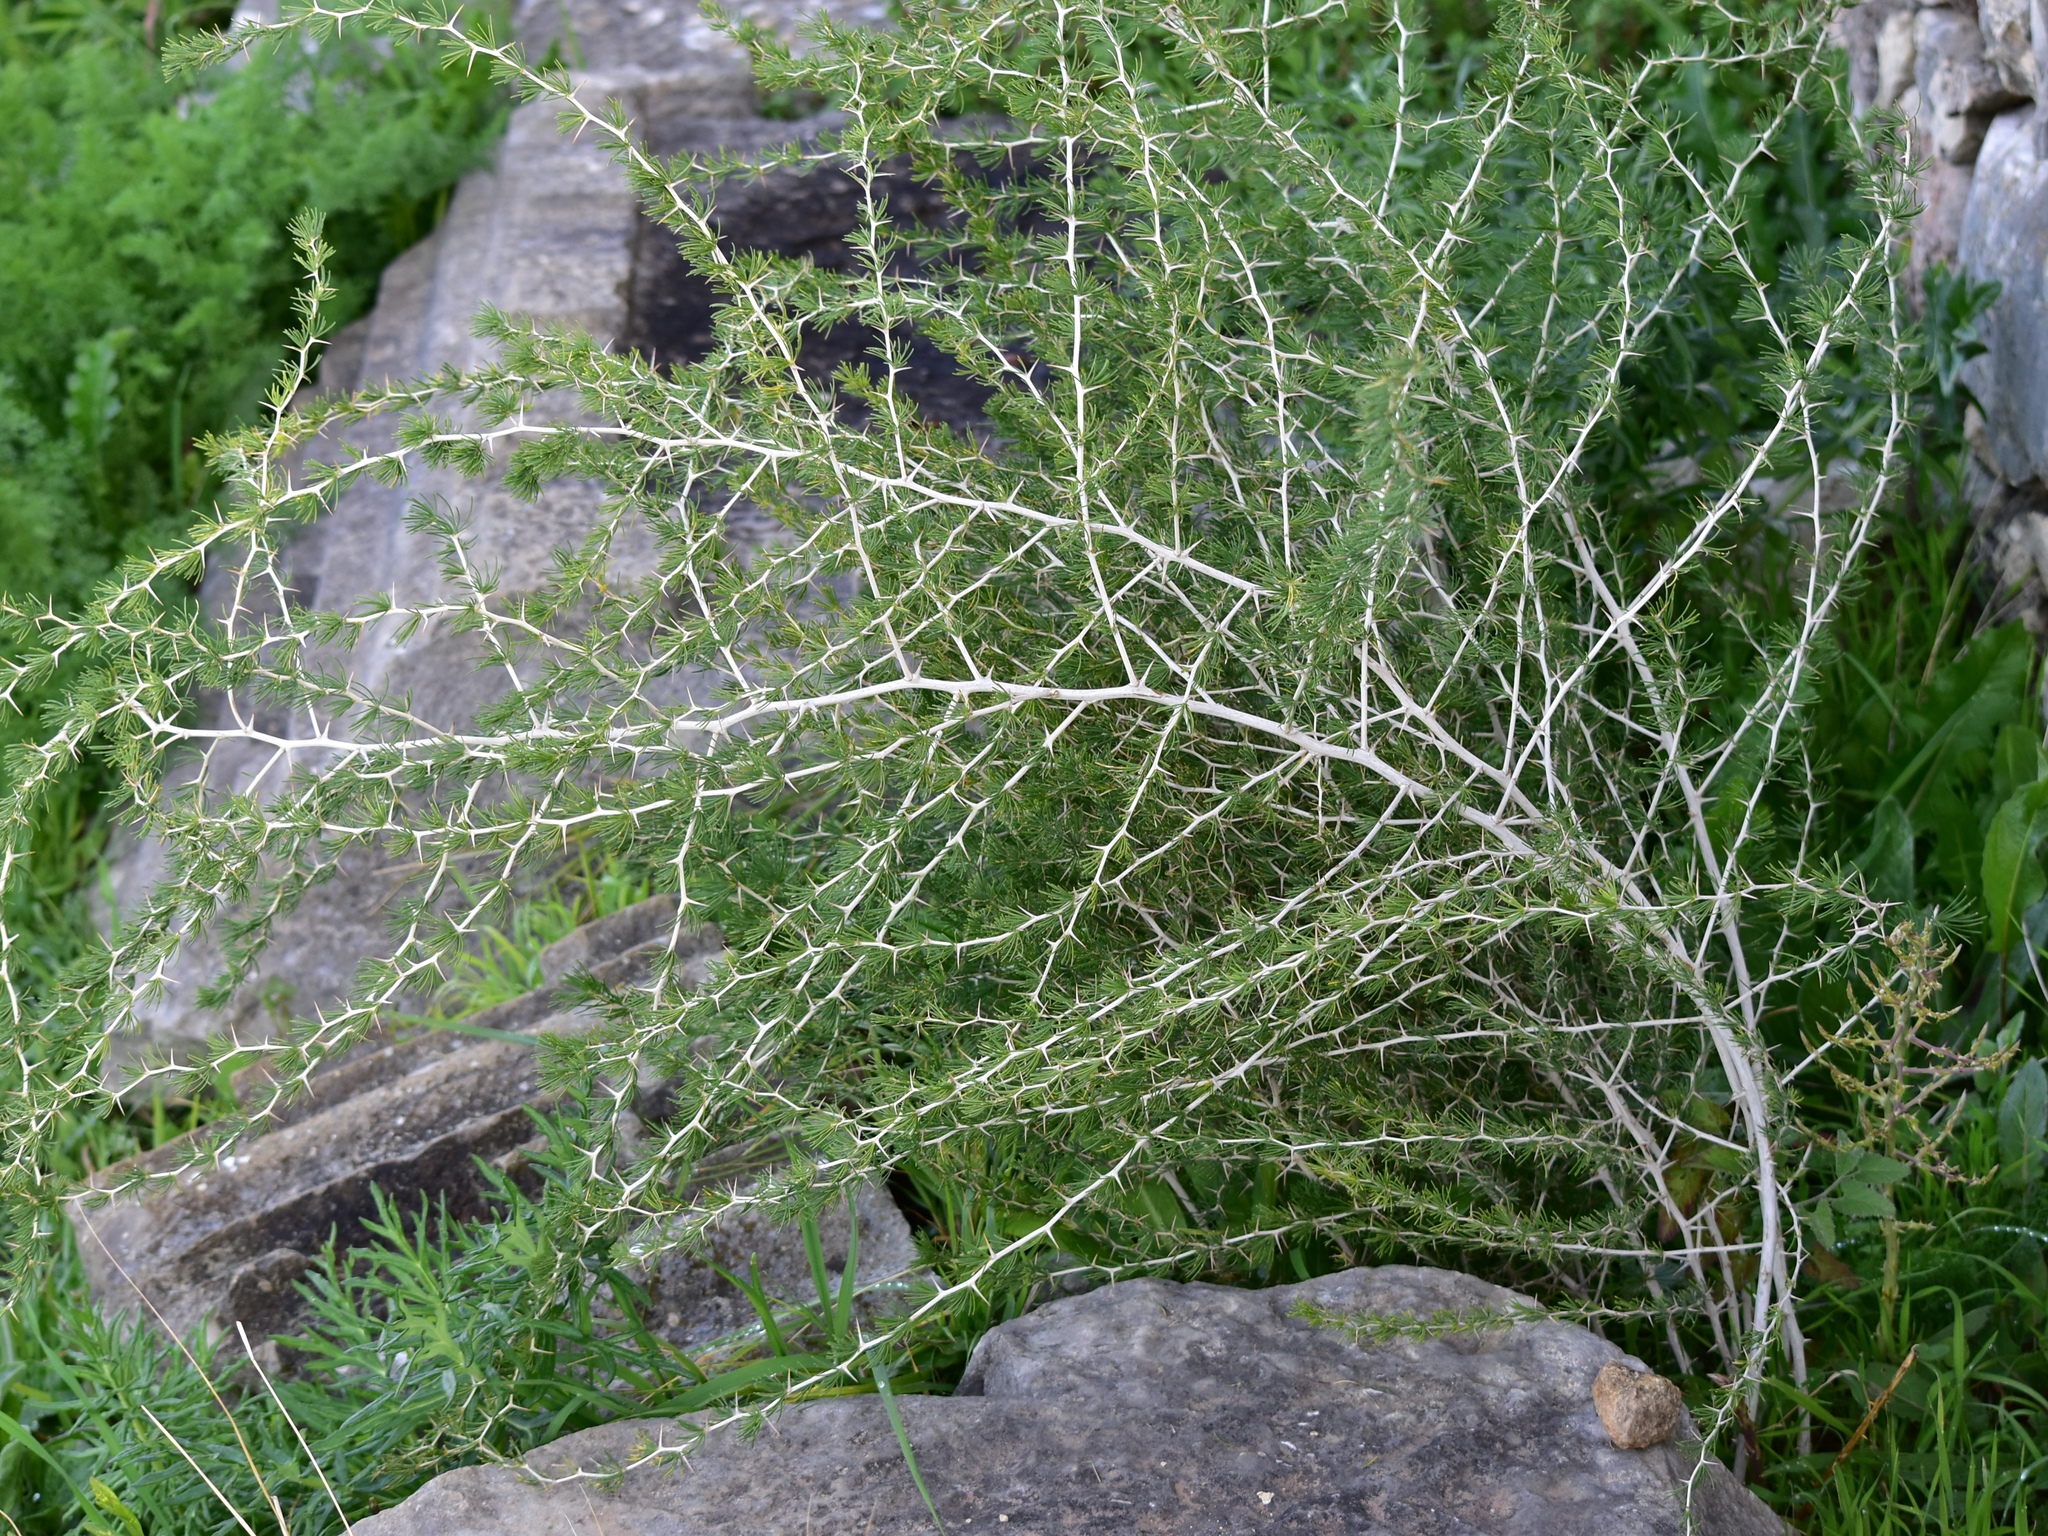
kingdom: Plantae
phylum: Tracheophyta
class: Liliopsida
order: Asparagales
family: Asparagaceae
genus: Asparagus
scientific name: Asparagus albus
